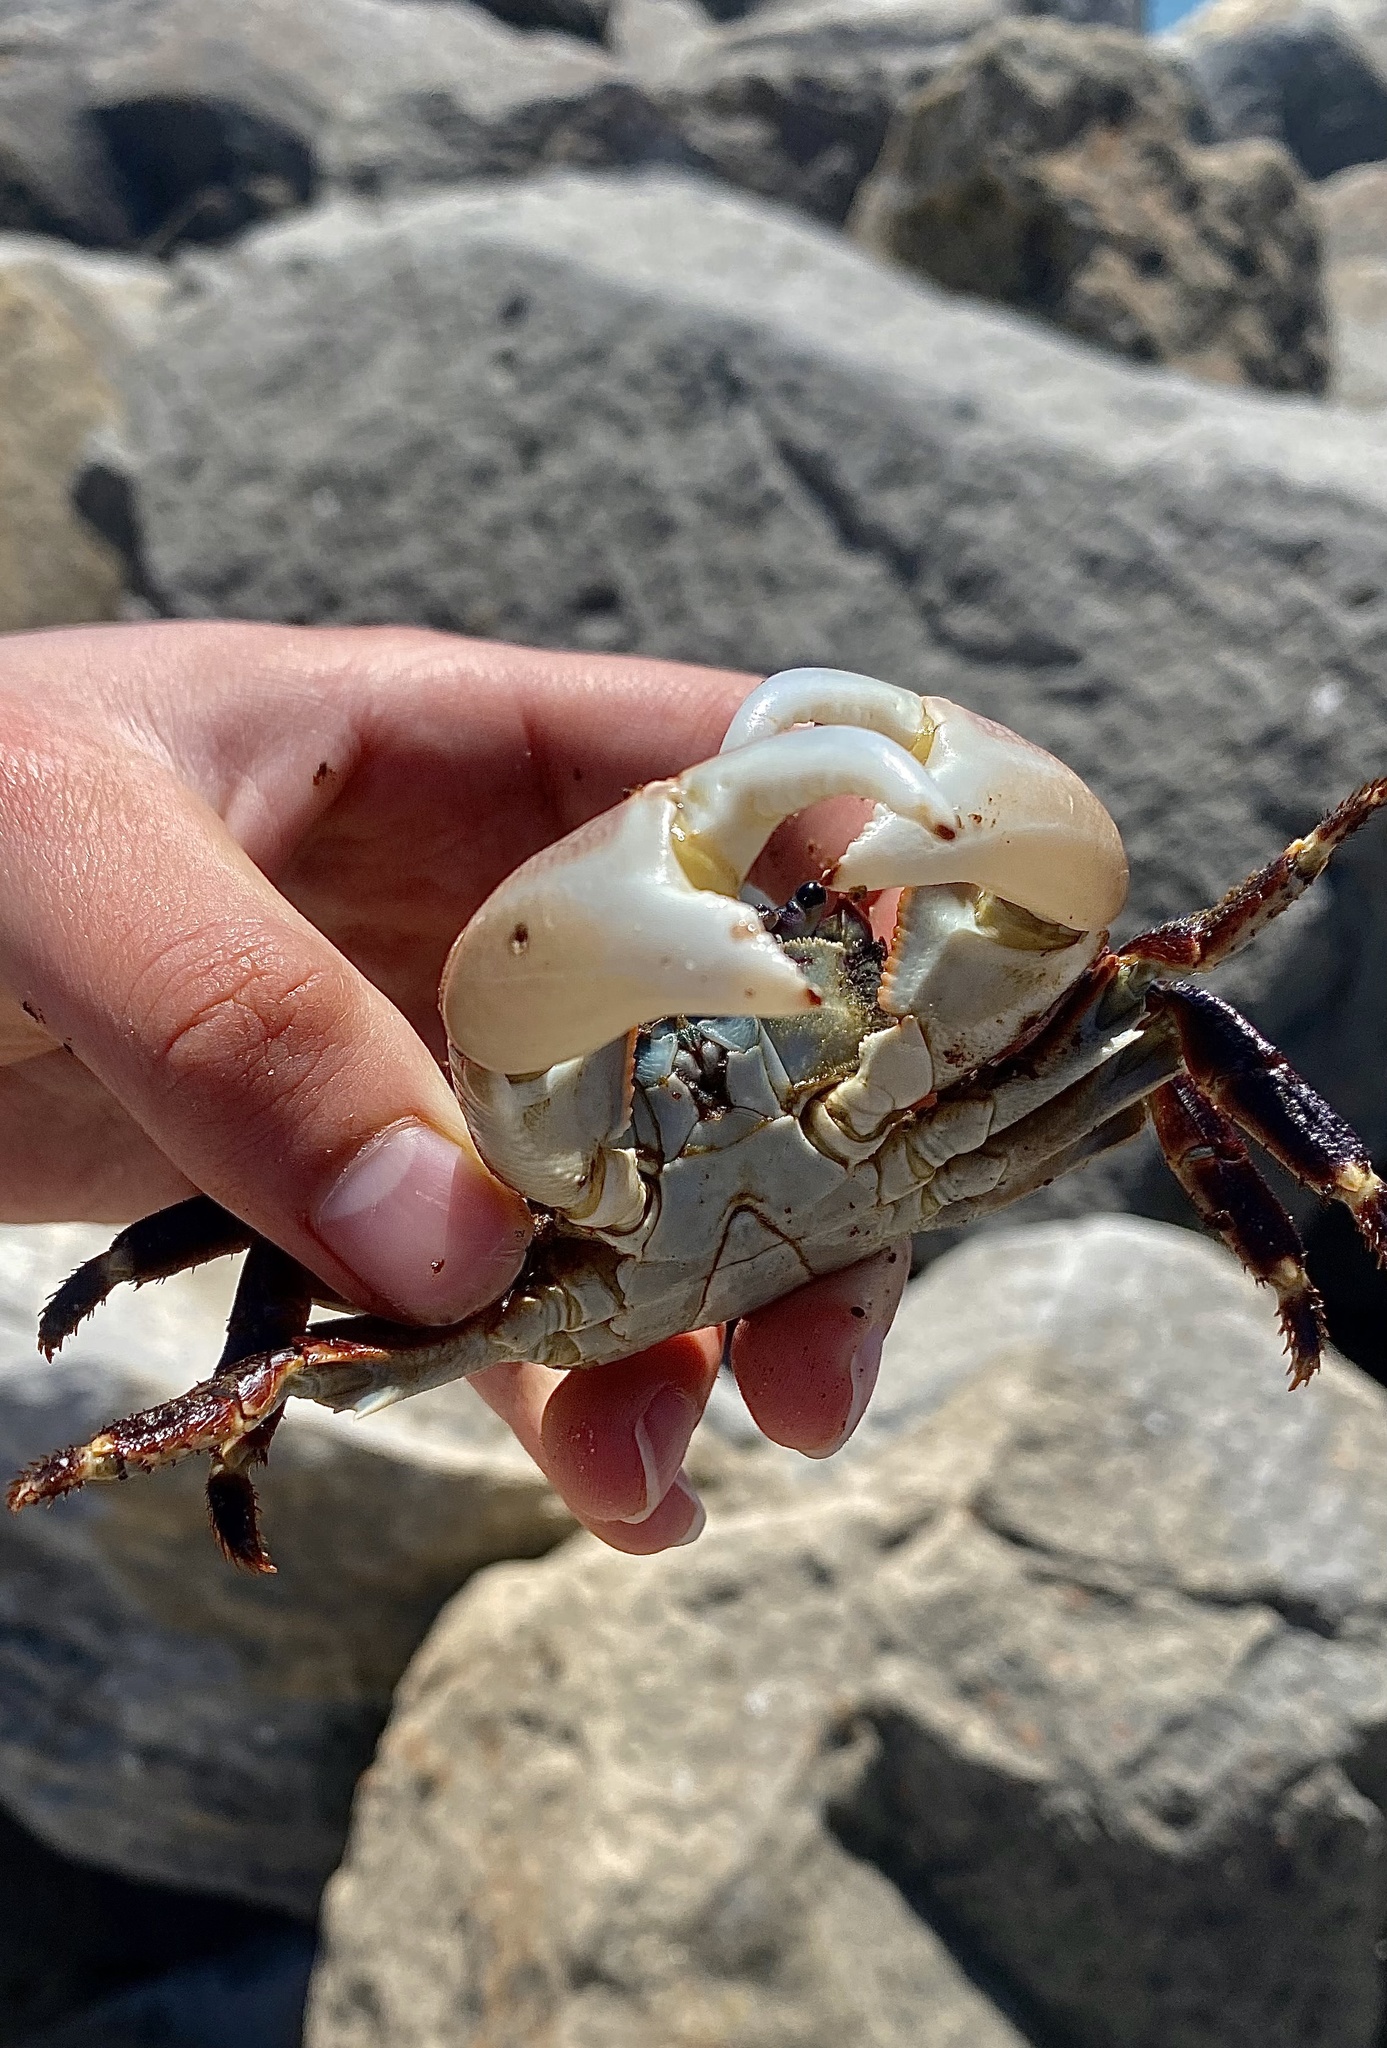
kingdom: Animalia
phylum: Arthropoda
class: Malacostraca
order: Decapoda
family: Grapsidae
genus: Pachygrapsus
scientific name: Pachygrapsus crassipes
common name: Striped shore crab
